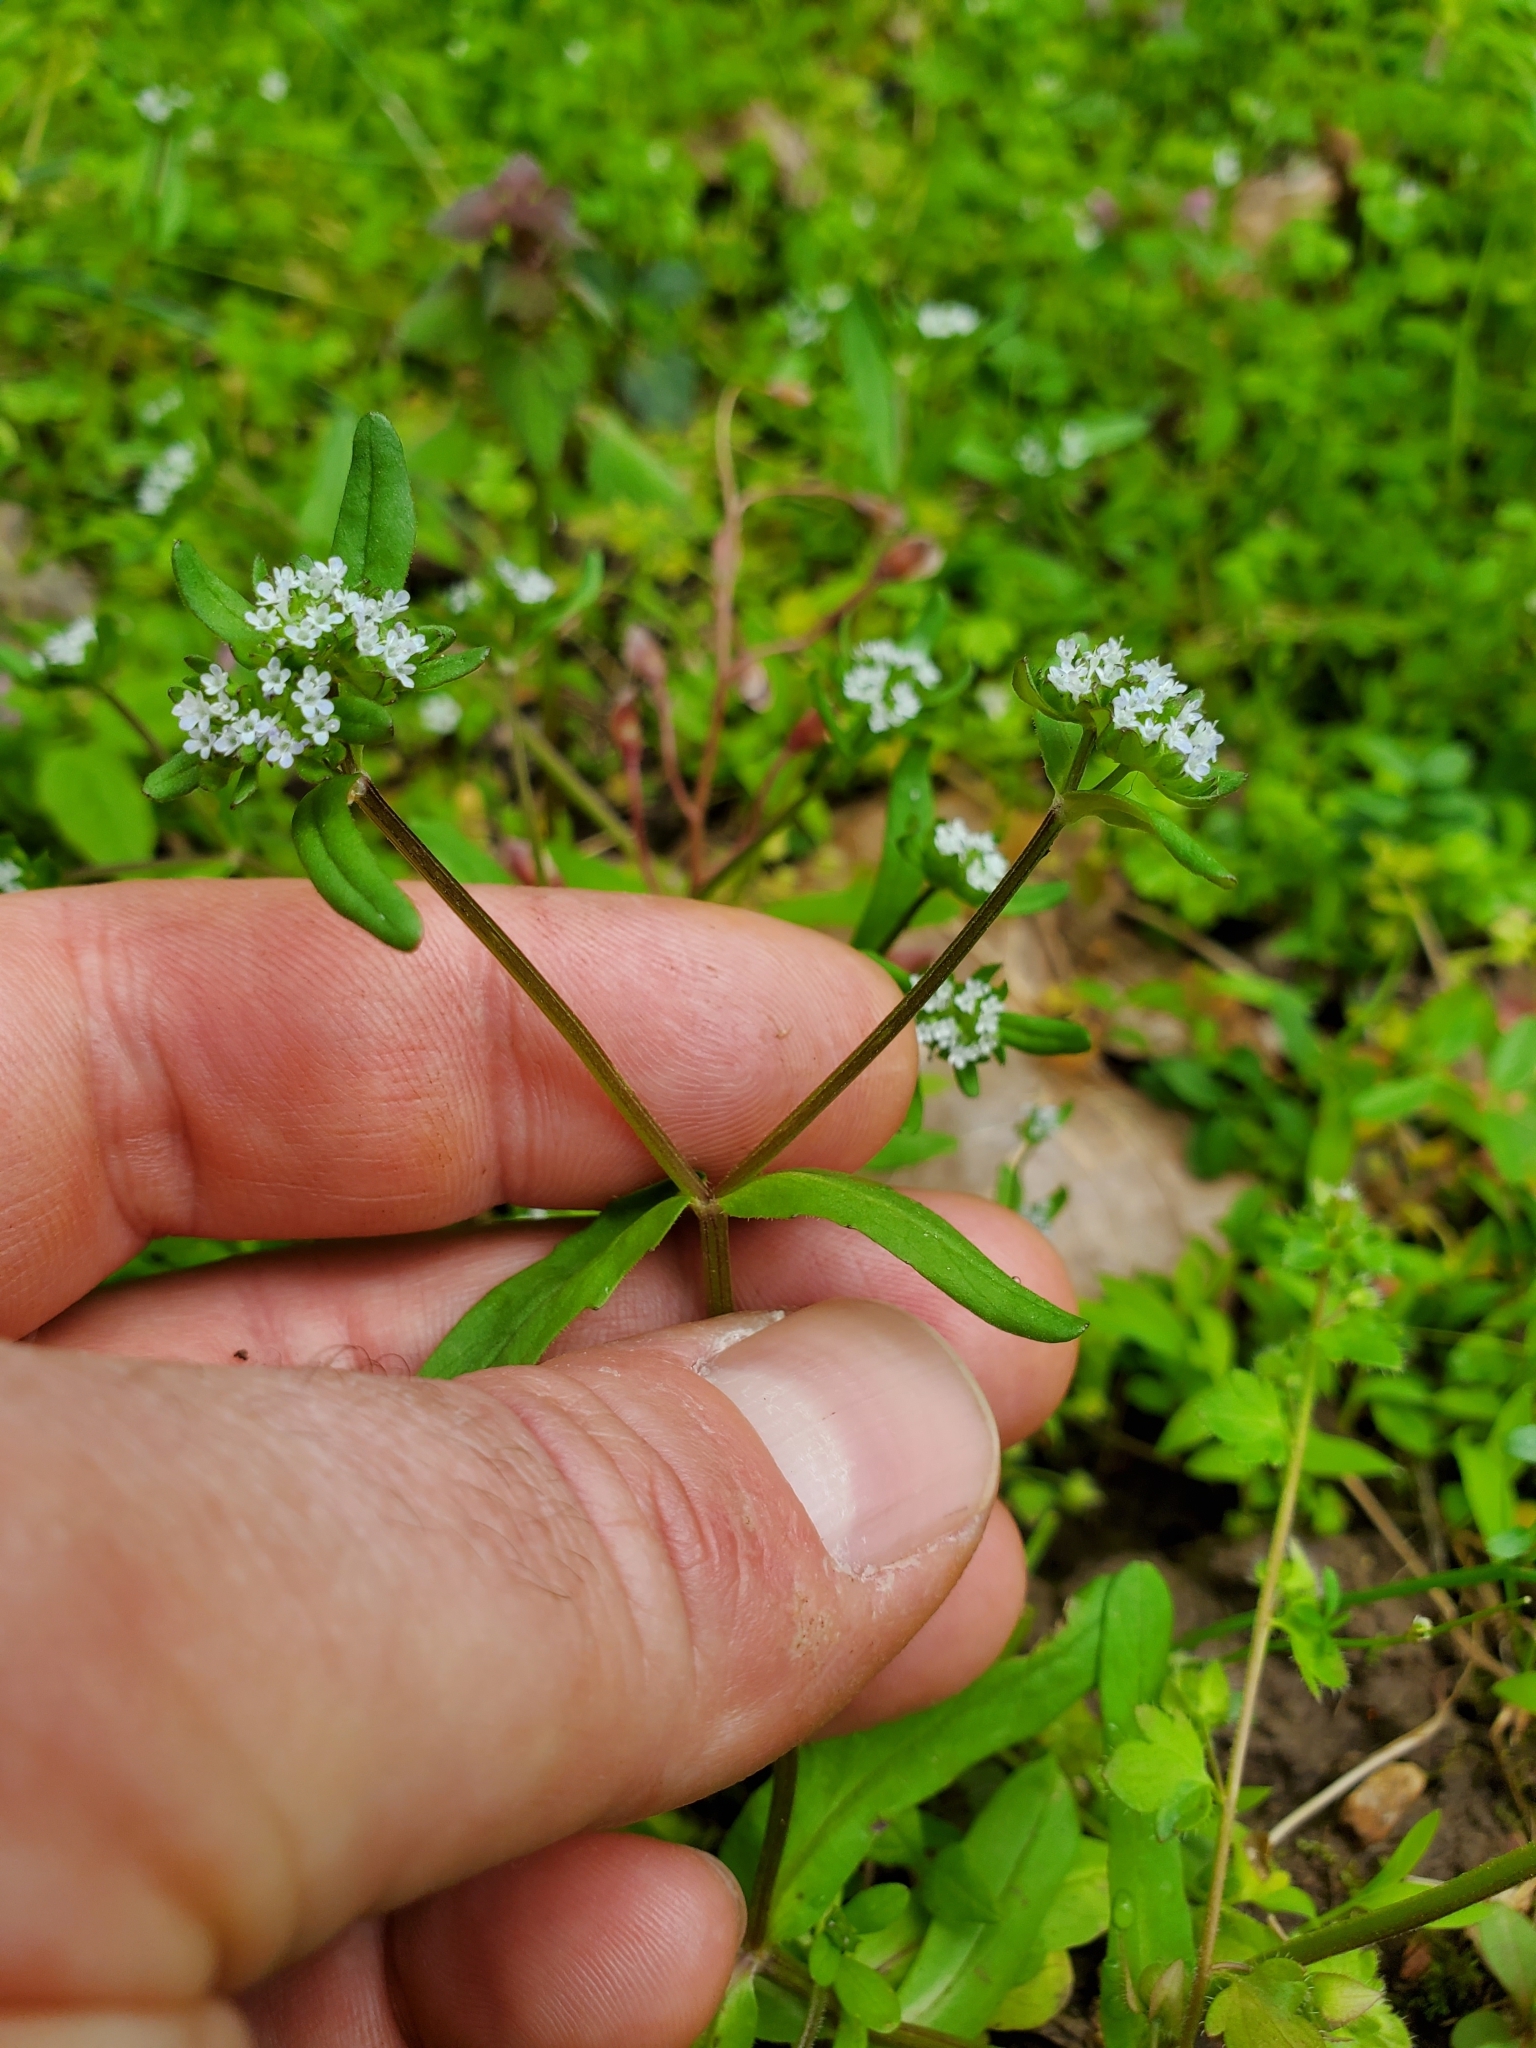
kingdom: Plantae
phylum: Tracheophyta
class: Magnoliopsida
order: Dipsacales
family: Caprifoliaceae
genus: Valerianella
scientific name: Valerianella locusta
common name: Common cornsalad
